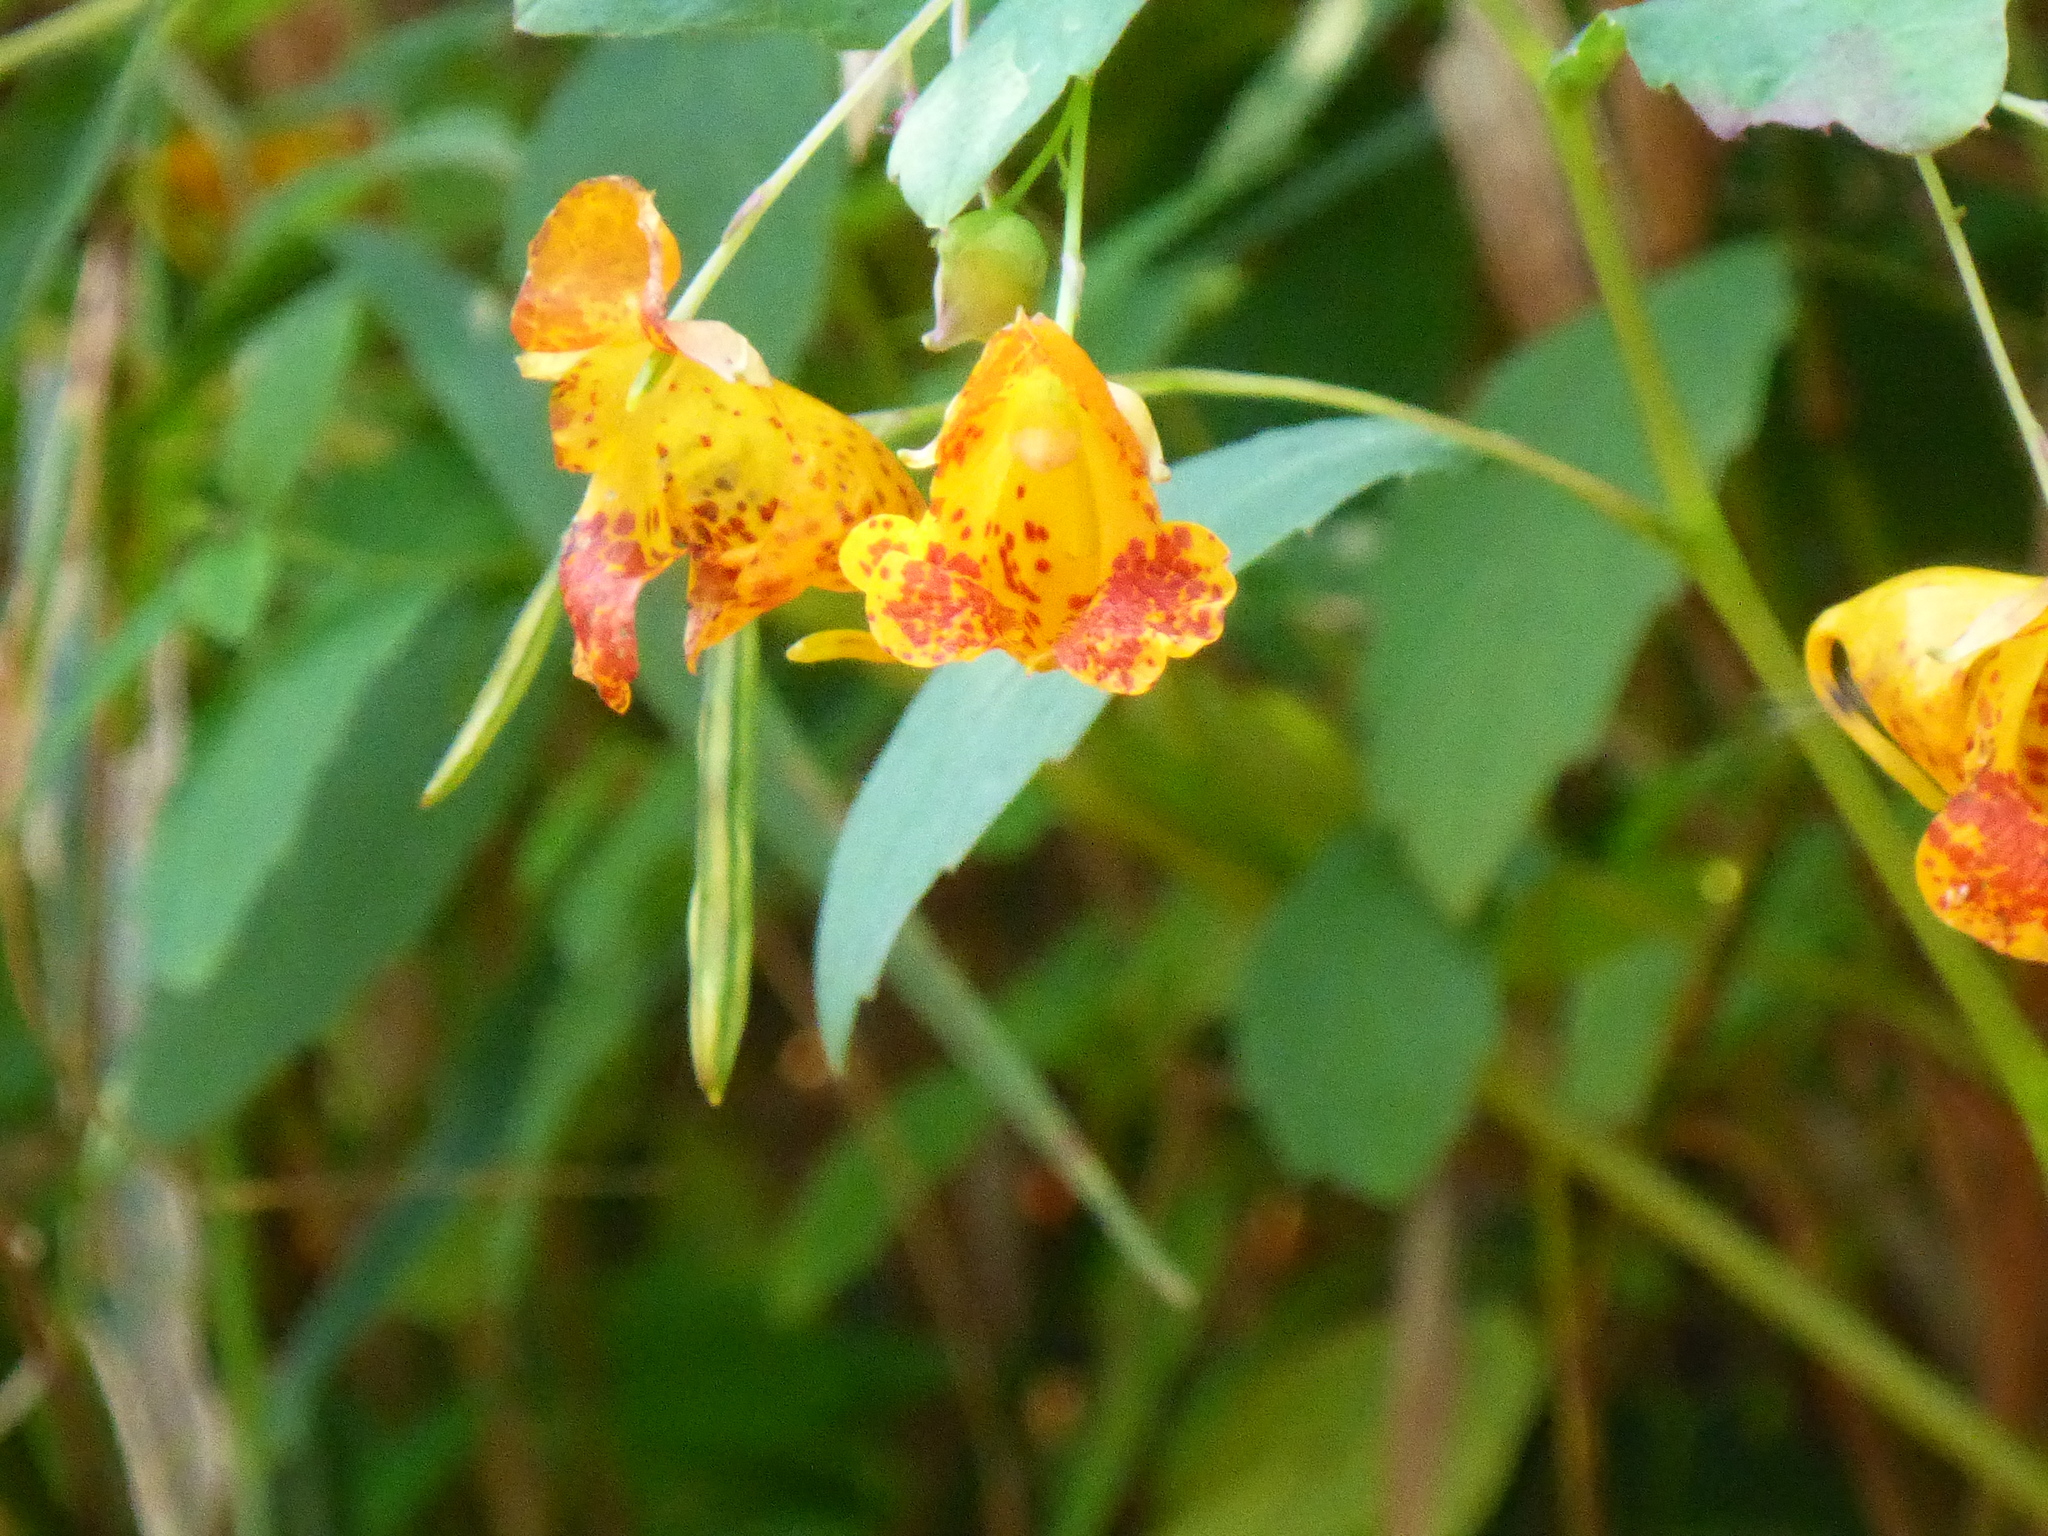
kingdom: Plantae
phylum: Tracheophyta
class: Magnoliopsida
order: Ericales
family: Balsaminaceae
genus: Impatiens
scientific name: Impatiens capensis
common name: Orange balsam
